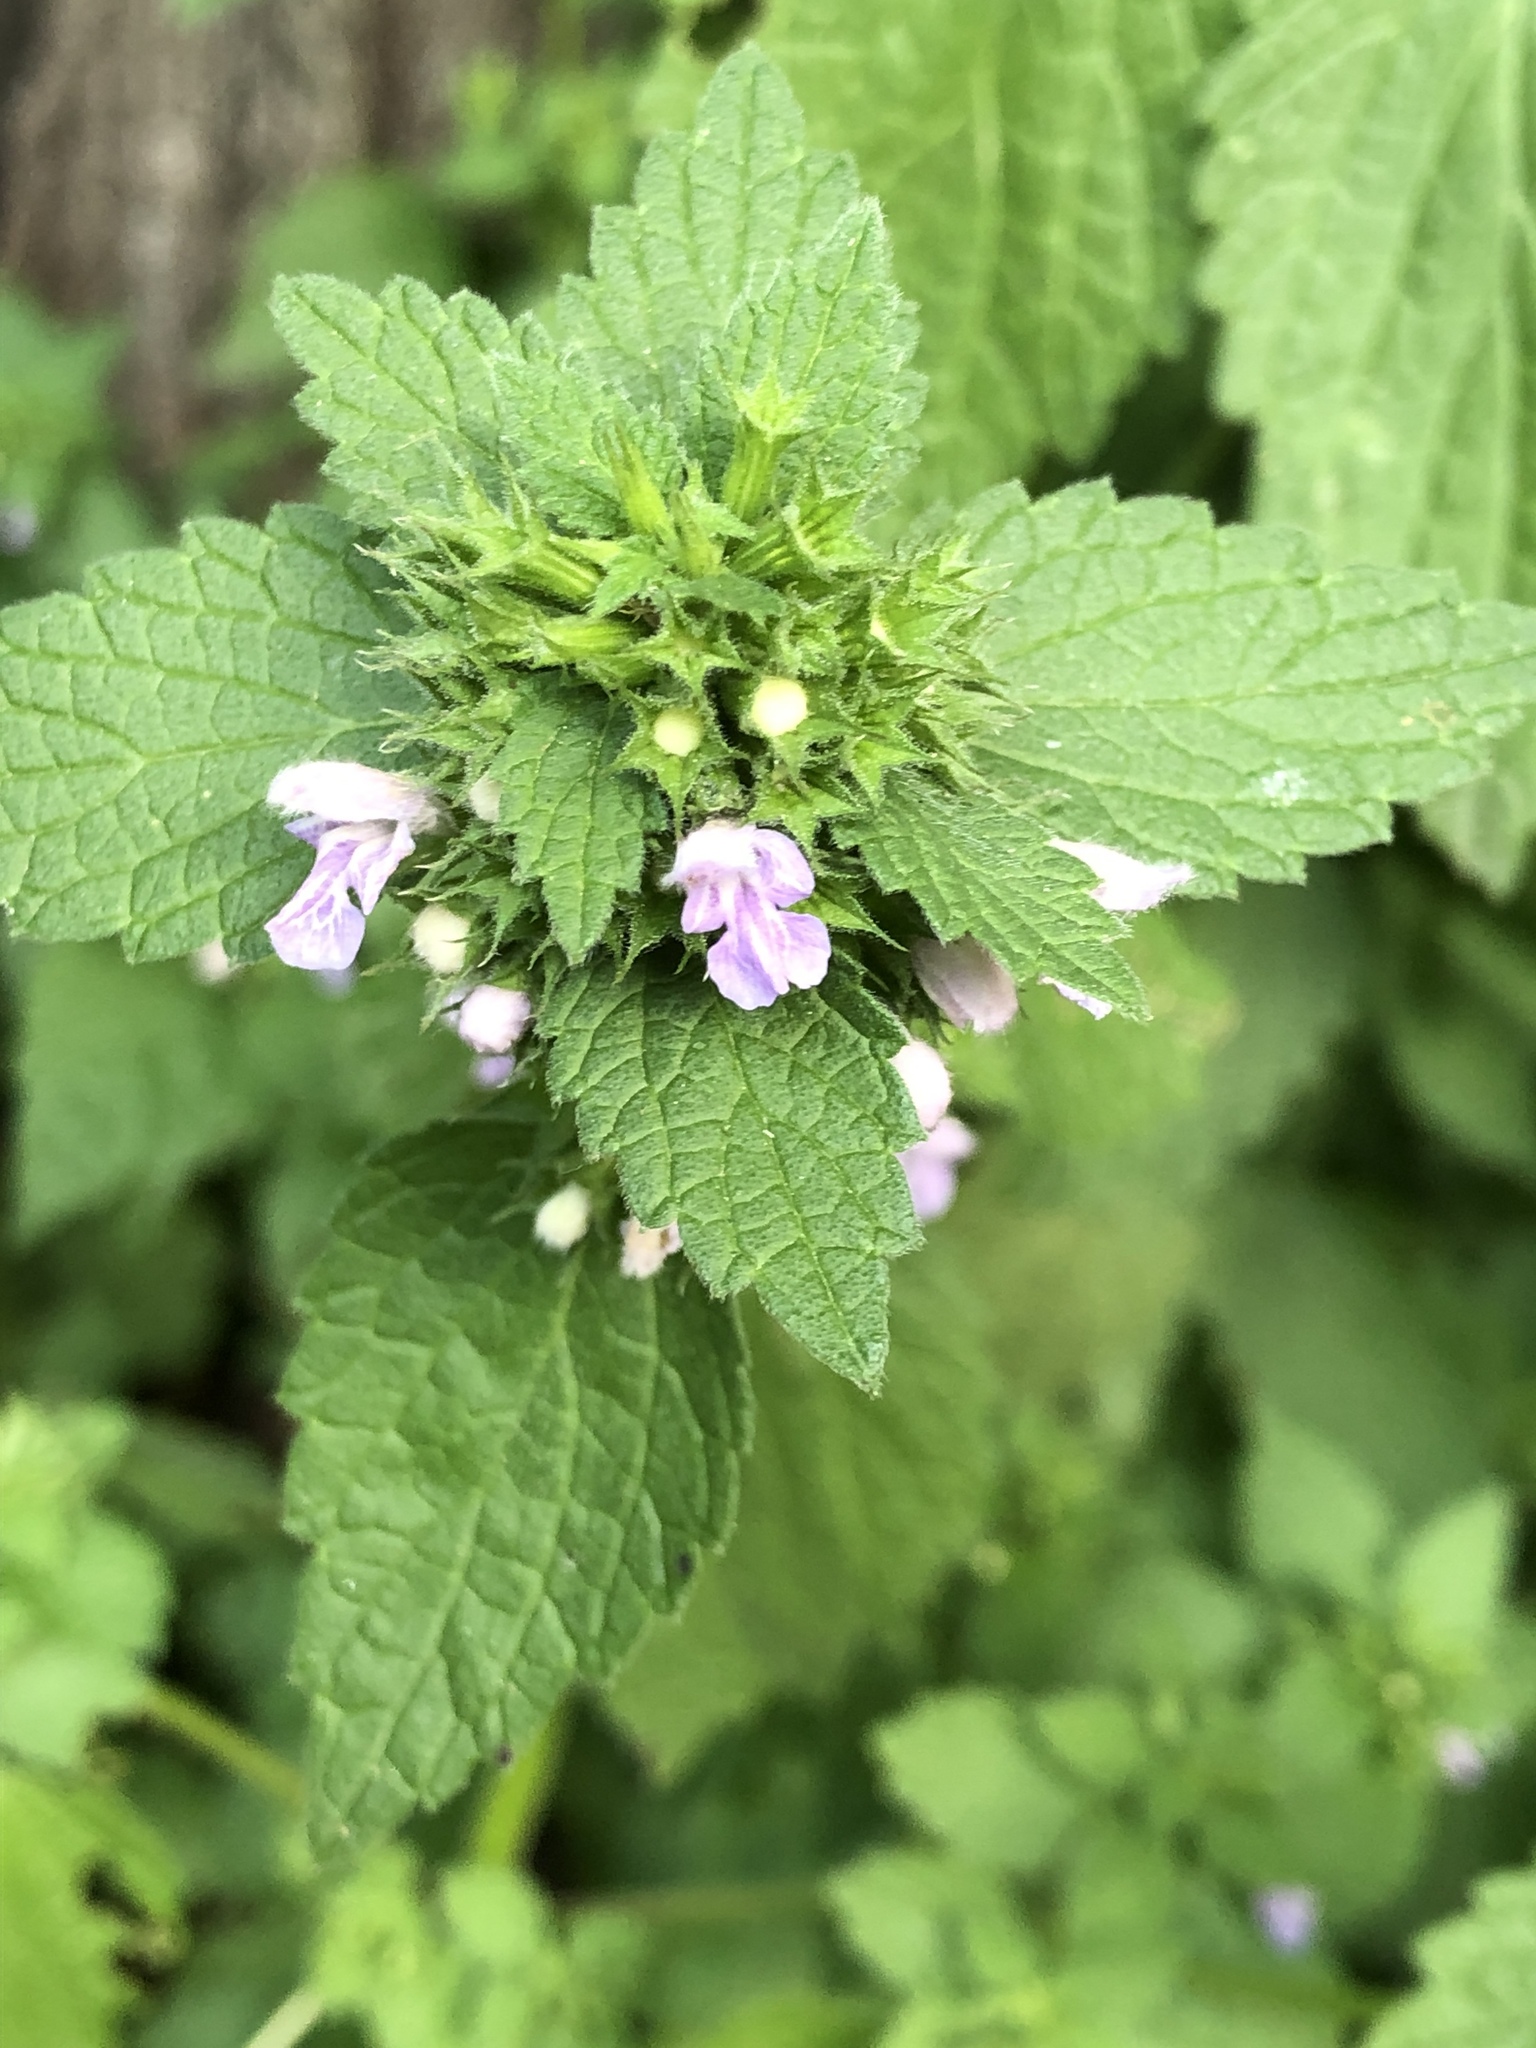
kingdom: Plantae
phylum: Tracheophyta
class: Magnoliopsida
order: Lamiales
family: Lamiaceae
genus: Ballota
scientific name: Ballota nigra
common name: Black horehound
